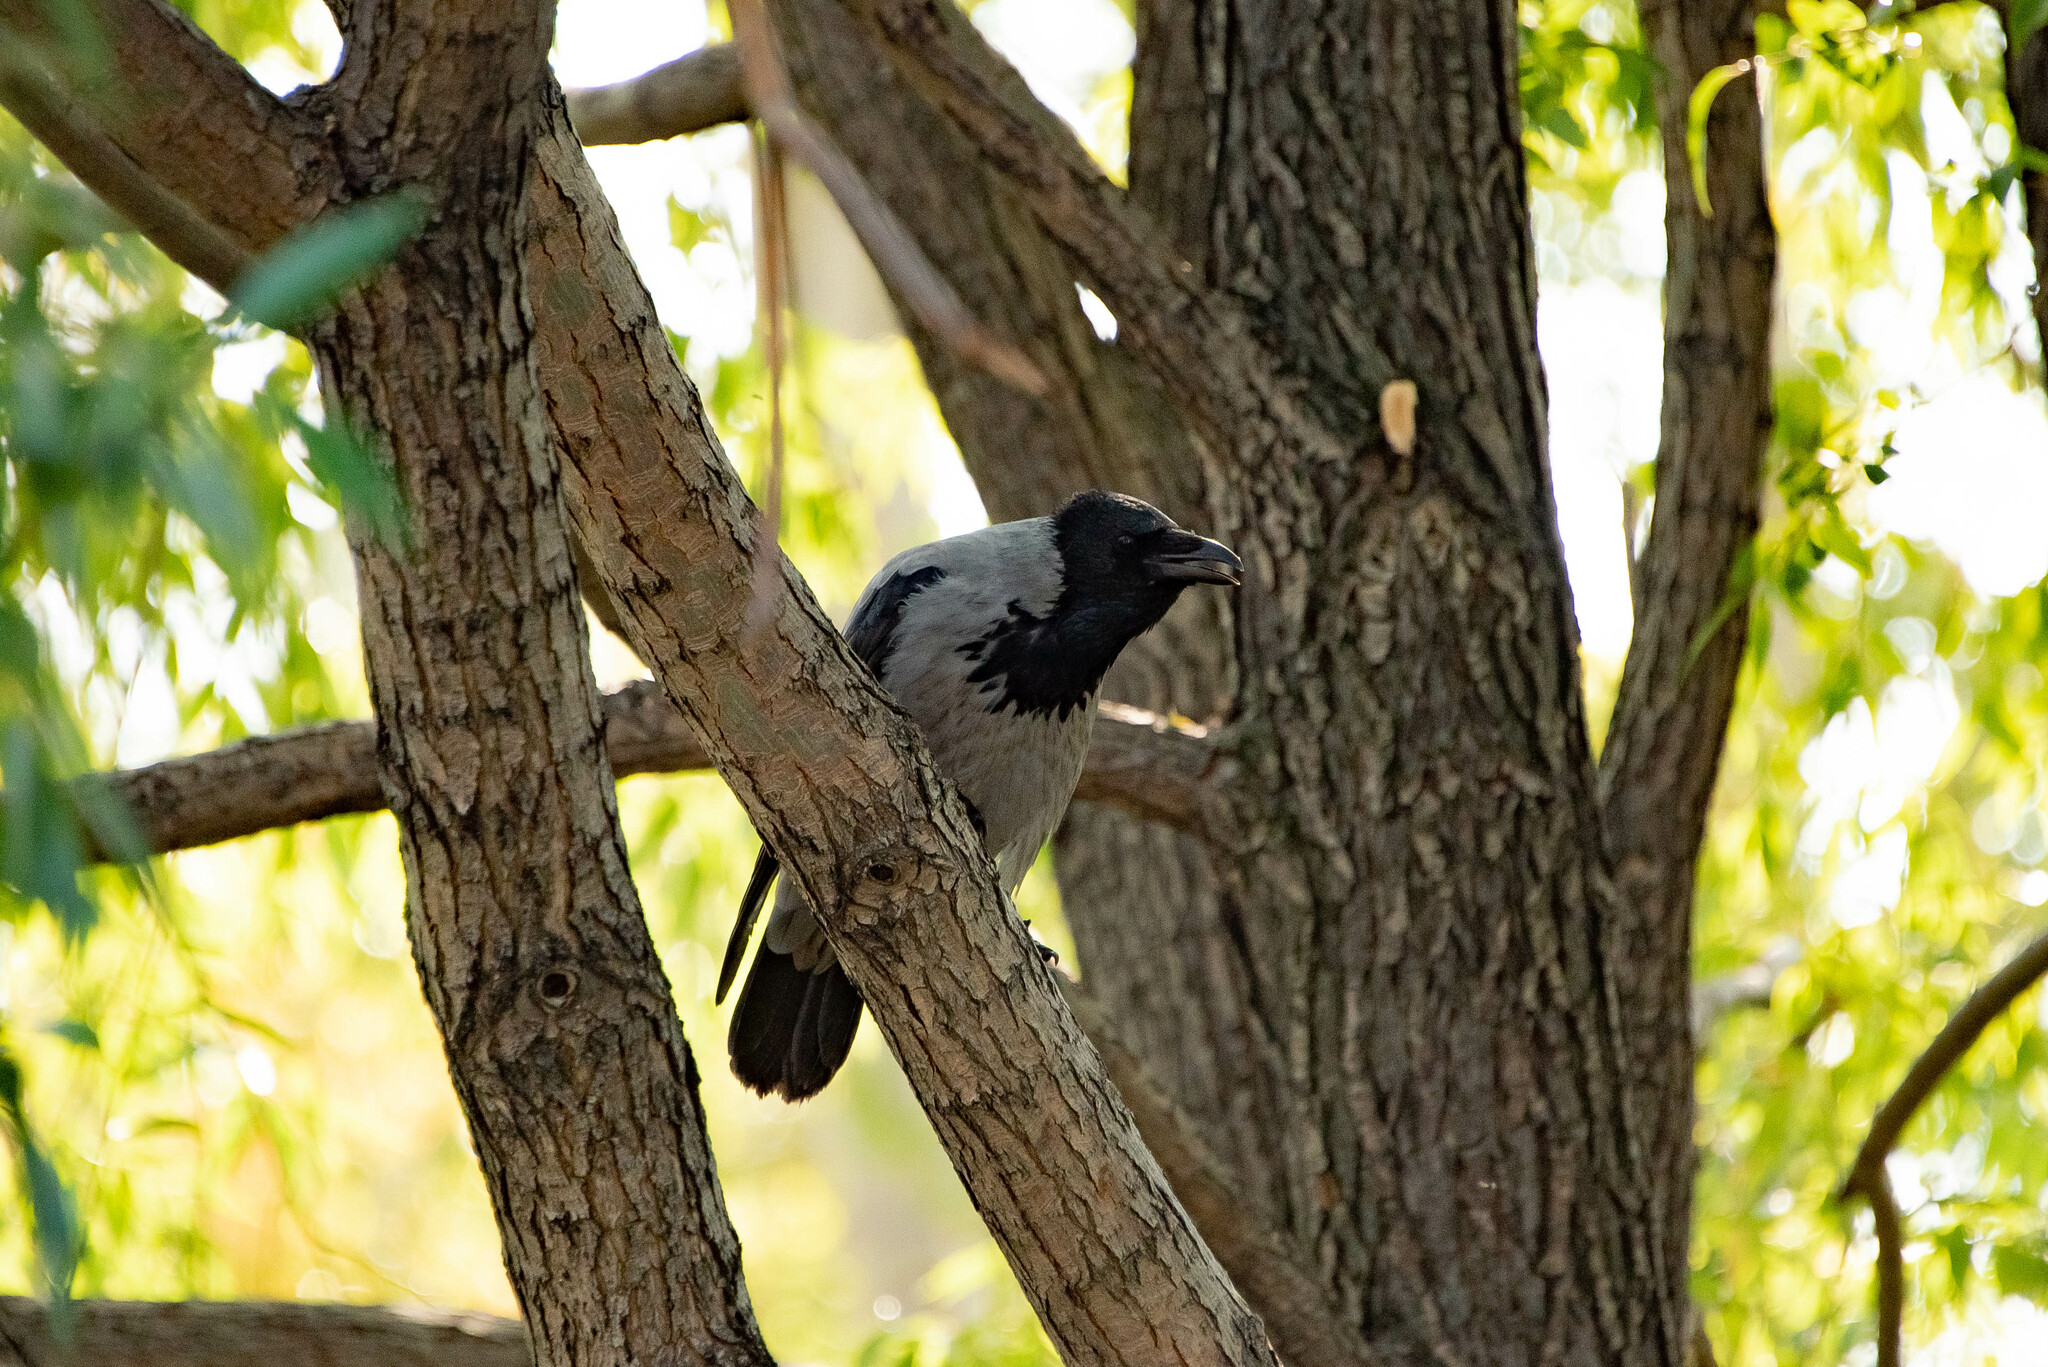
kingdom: Animalia
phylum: Chordata
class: Aves
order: Passeriformes
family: Corvidae
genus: Corvus
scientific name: Corvus cornix
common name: Hooded crow
